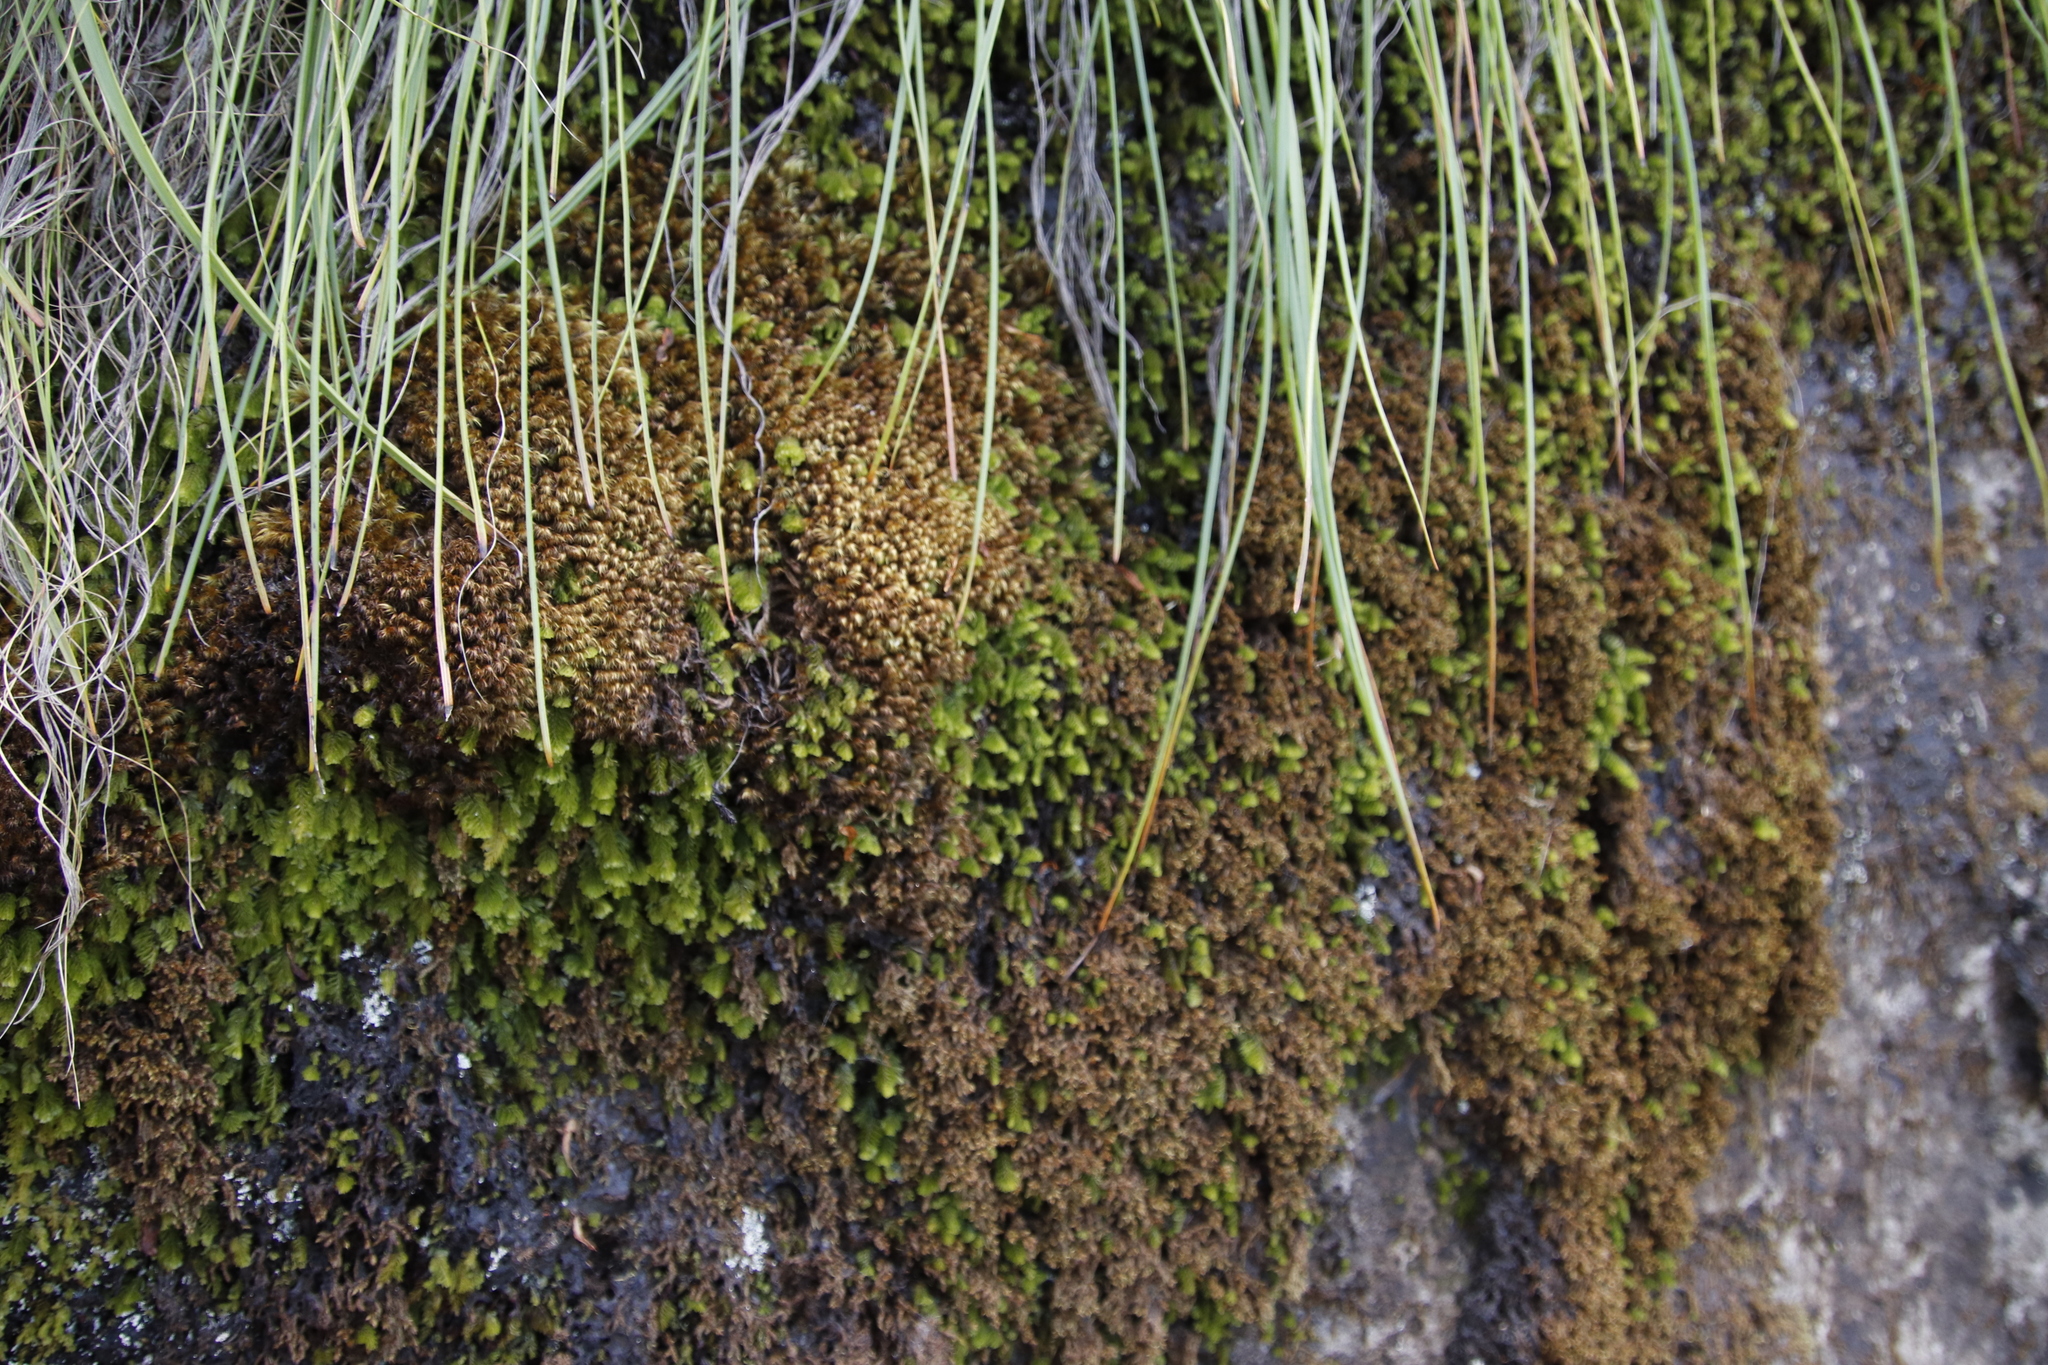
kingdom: Plantae
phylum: Bryophyta
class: Bryopsida
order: Dicranales
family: Fissidentaceae
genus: Fissidens
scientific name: Fissidens megalotis
